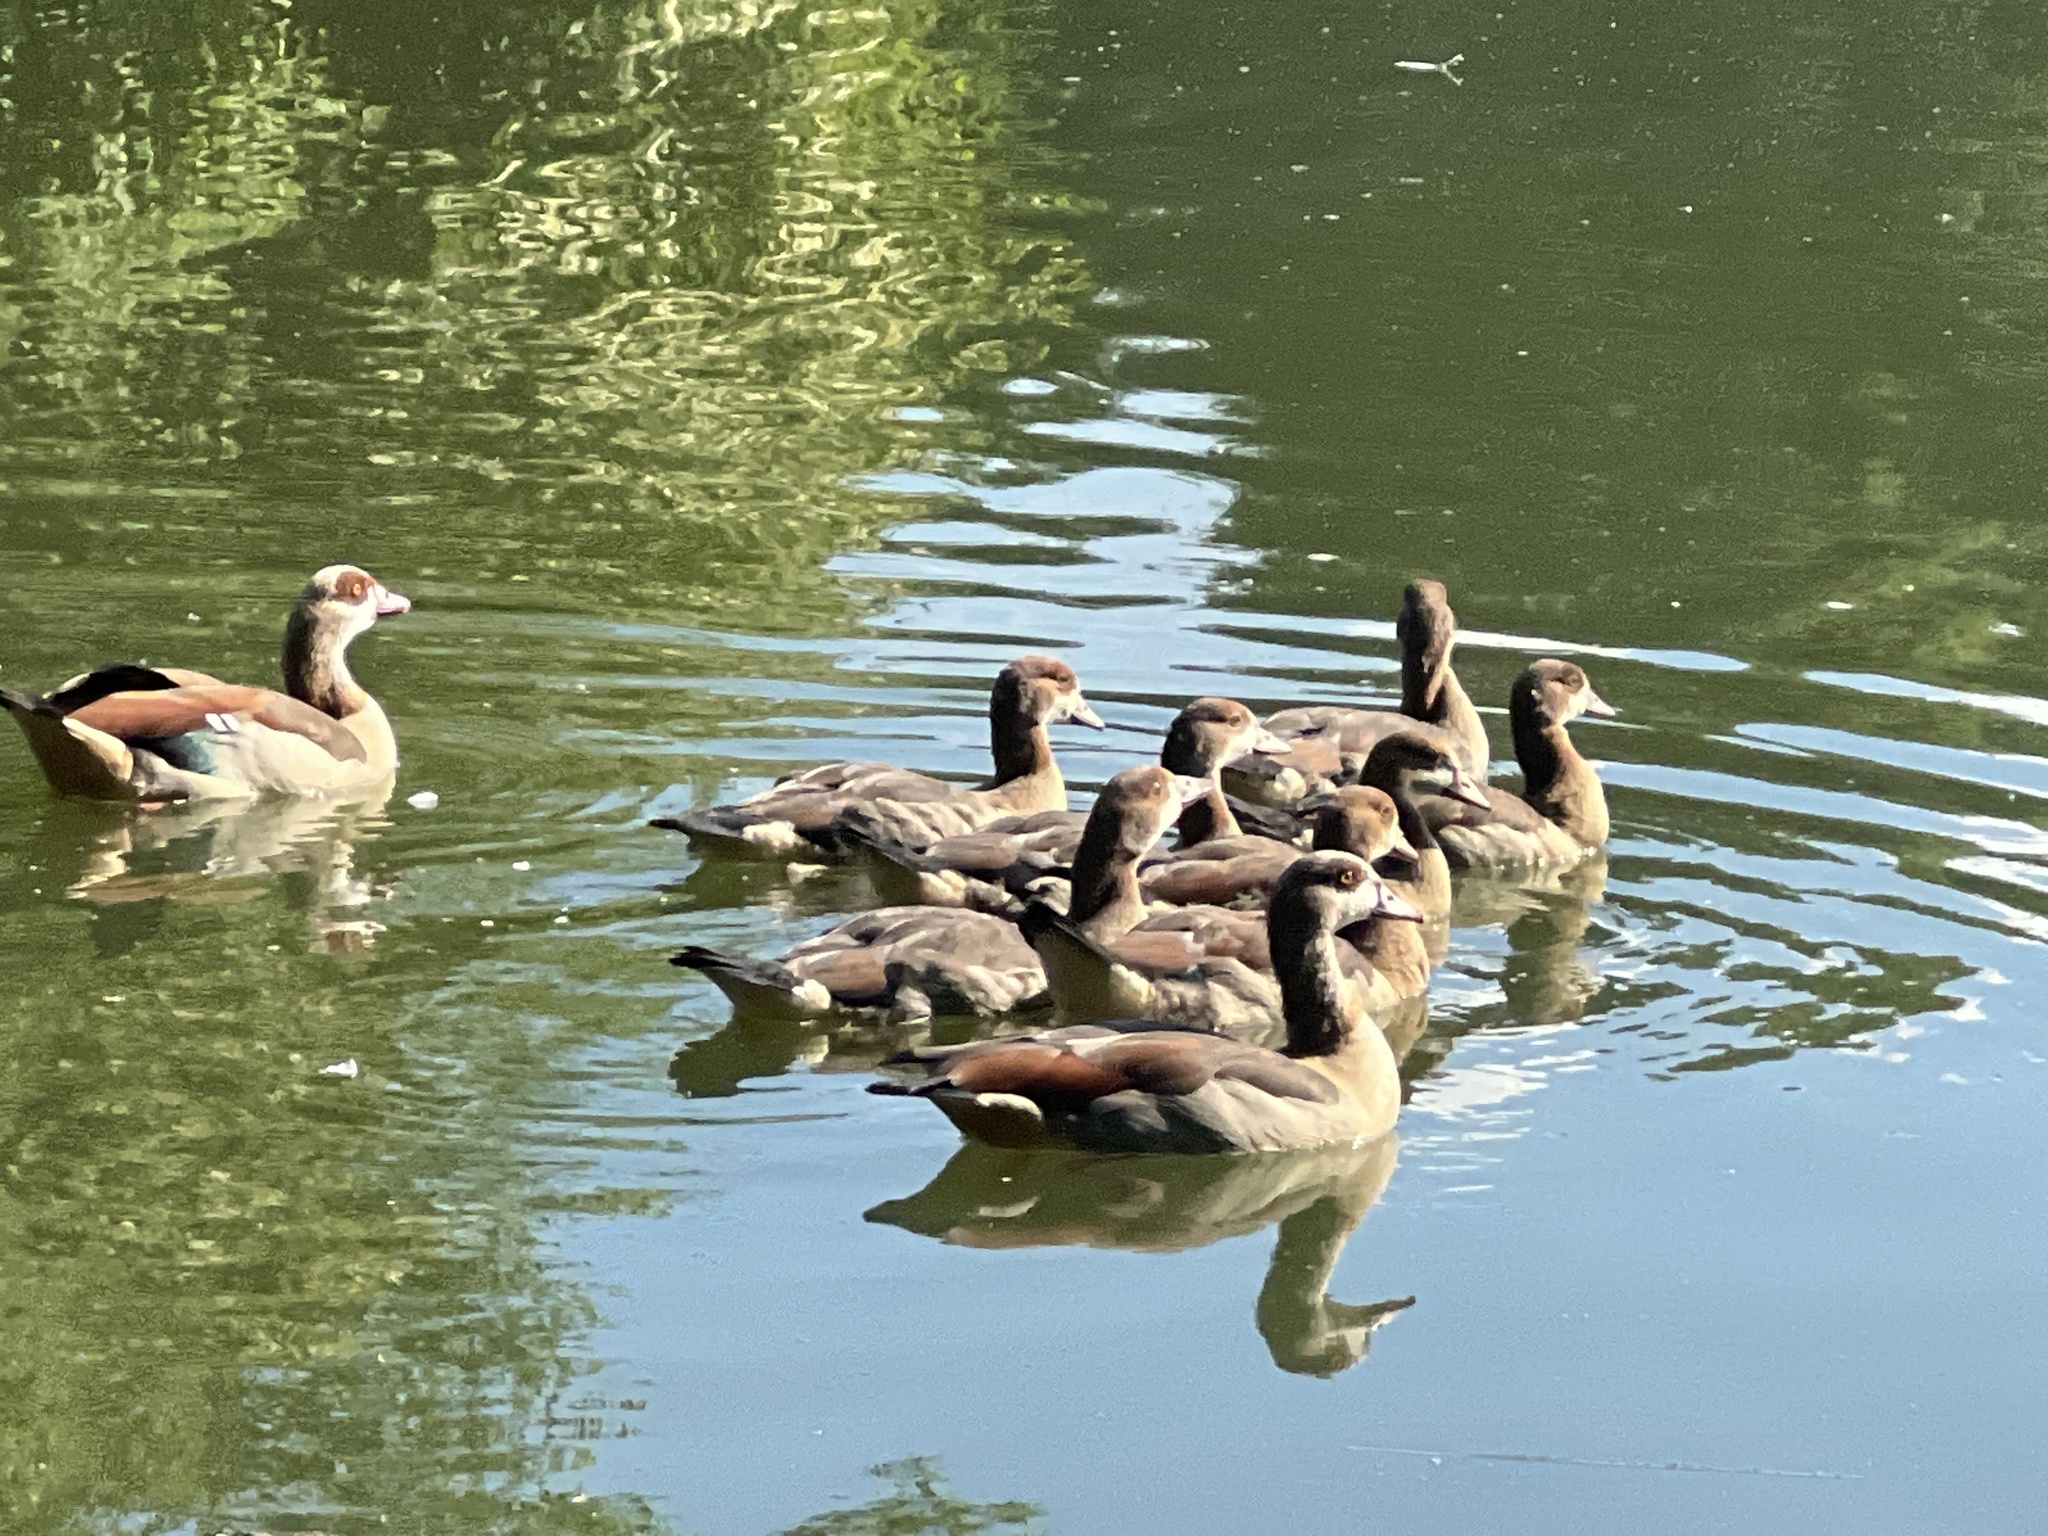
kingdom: Animalia
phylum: Chordata
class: Aves
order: Anseriformes
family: Anatidae
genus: Alopochen
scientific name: Alopochen aegyptiaca
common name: Egyptian goose
